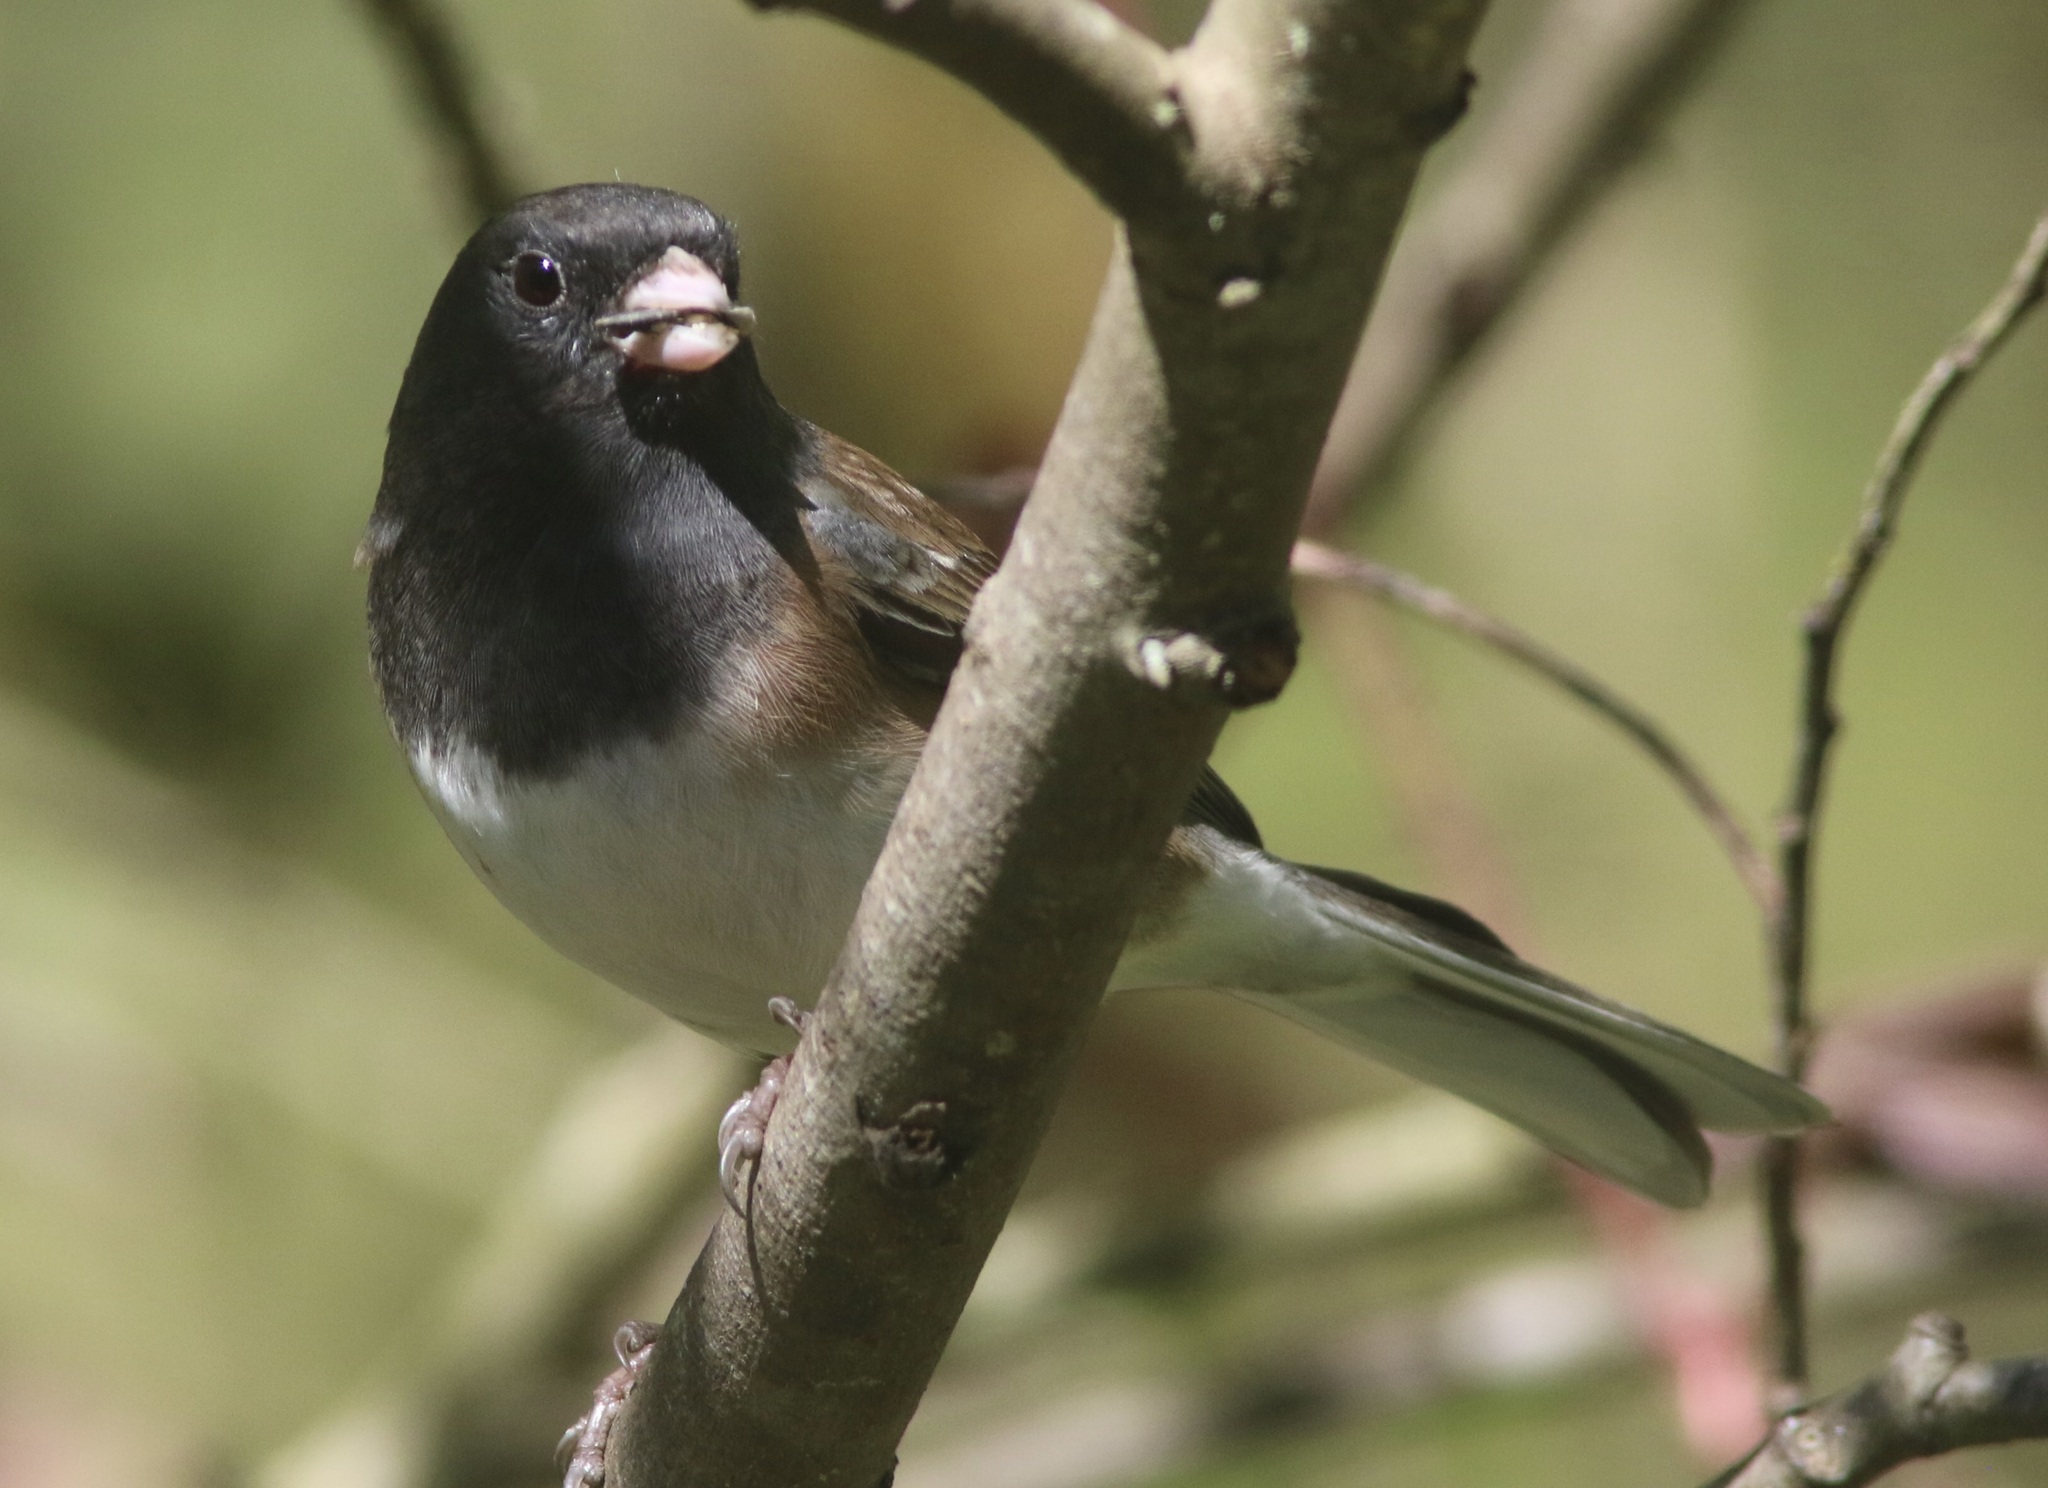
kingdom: Animalia
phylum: Chordata
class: Aves
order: Passeriformes
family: Passerellidae
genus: Junco
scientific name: Junco hyemalis
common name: Dark-eyed junco
